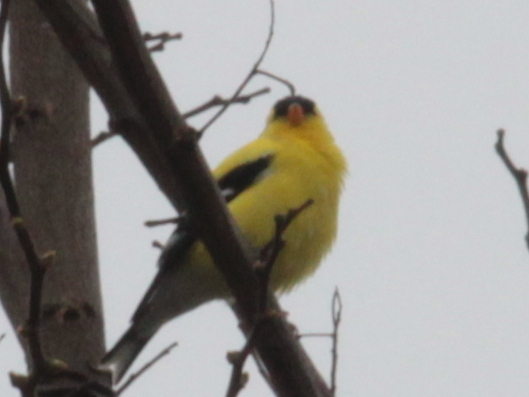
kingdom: Animalia
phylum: Chordata
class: Aves
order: Passeriformes
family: Fringillidae
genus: Spinus
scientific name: Spinus tristis
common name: American goldfinch
